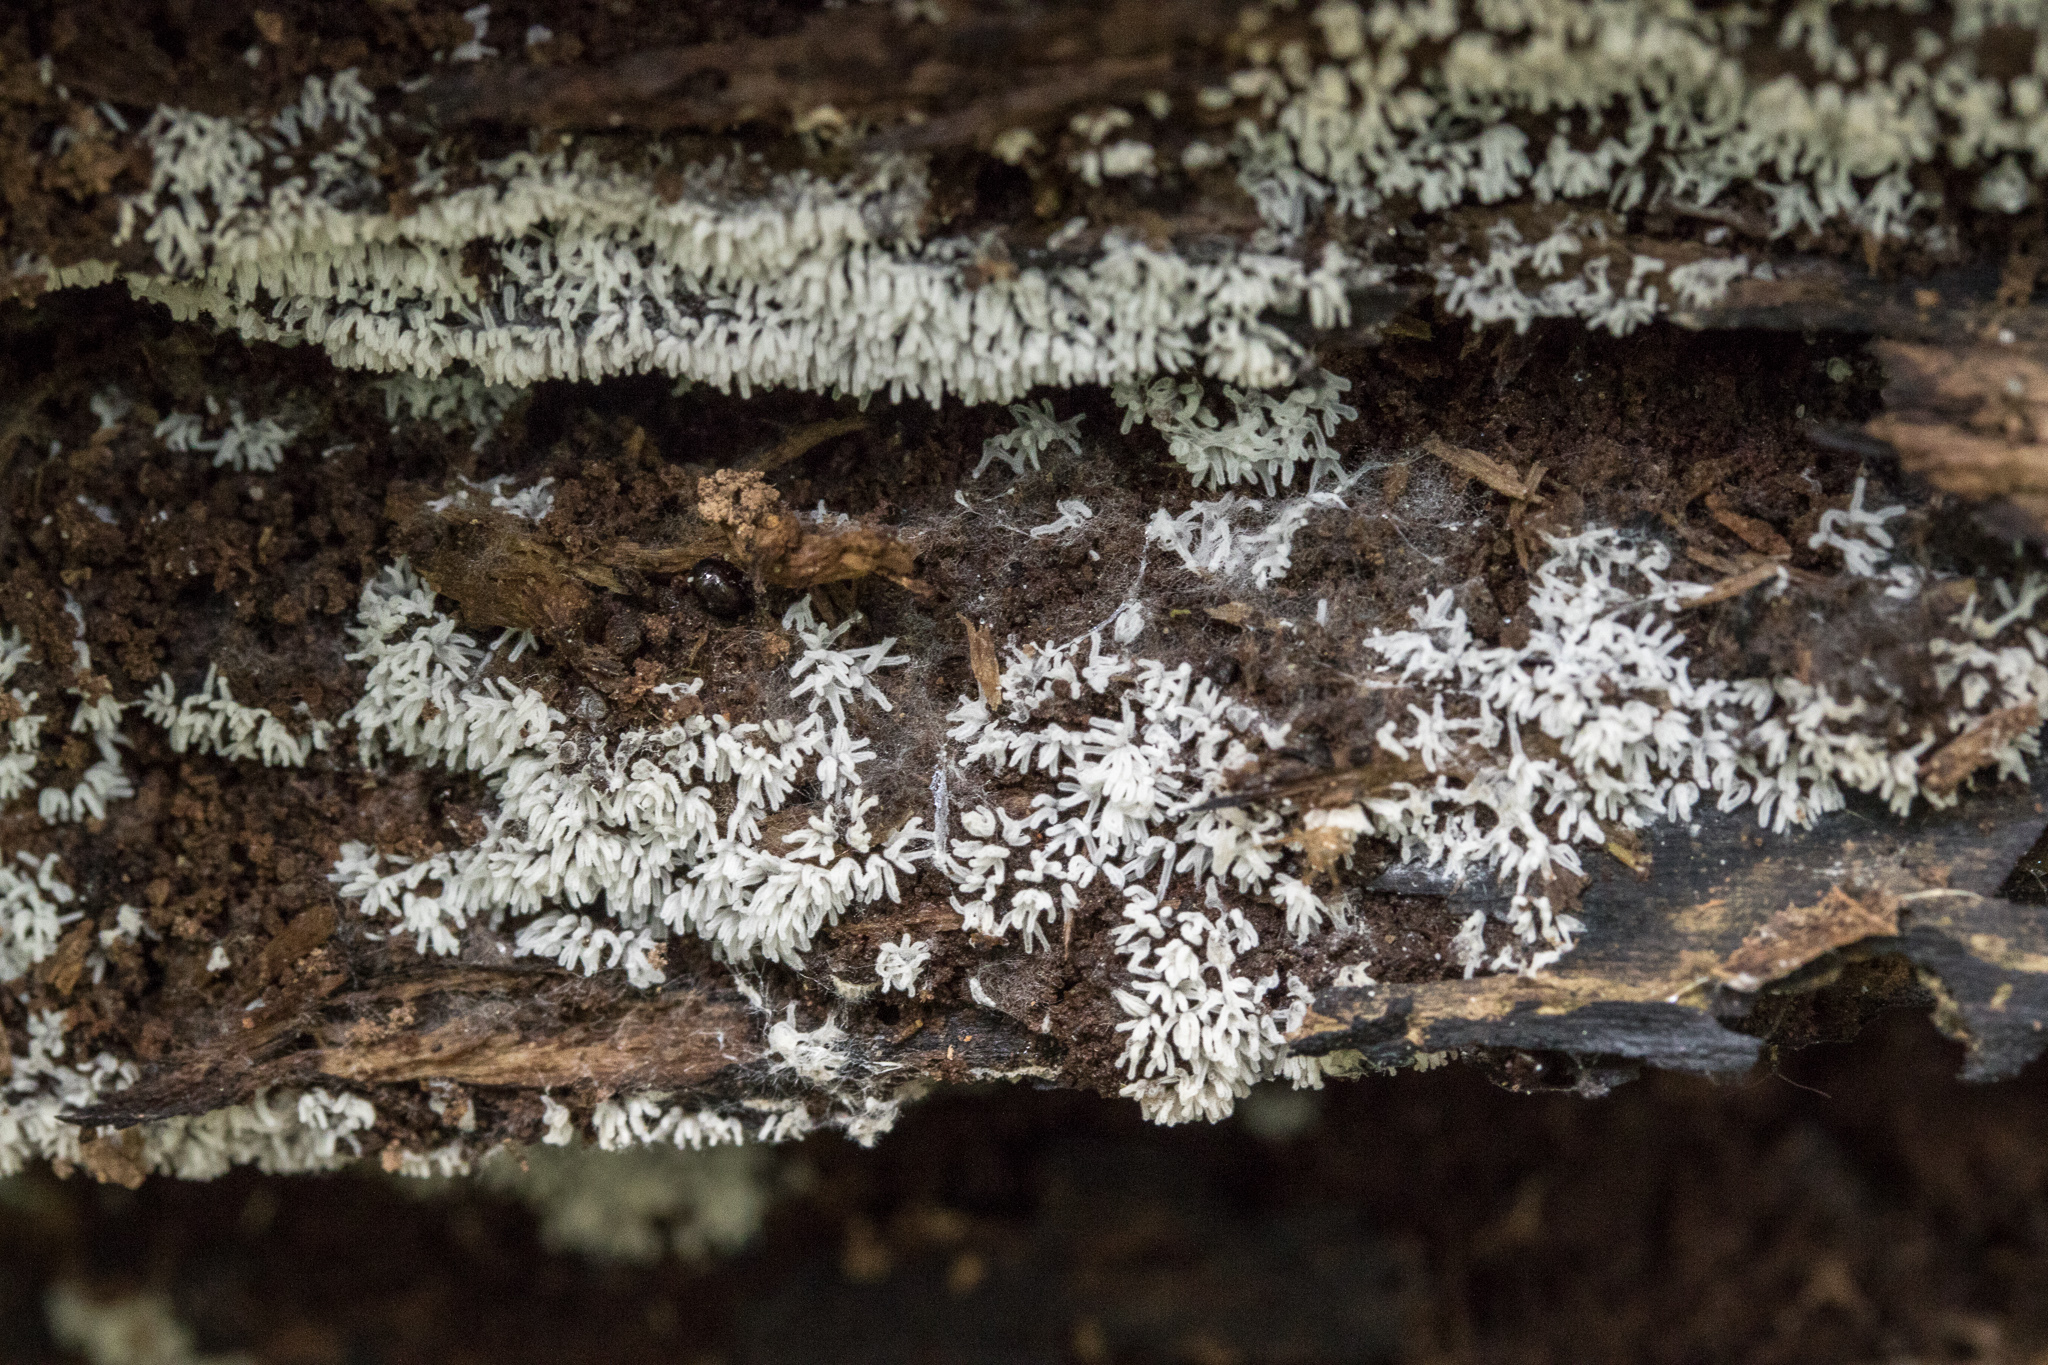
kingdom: Protozoa
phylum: Mycetozoa
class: Protosteliomycetes
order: Ceratiomyxales
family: Ceratiomyxaceae
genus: Ceratiomyxa
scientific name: Ceratiomyxa fruticulosa
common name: Honeycomb coral slime mold
